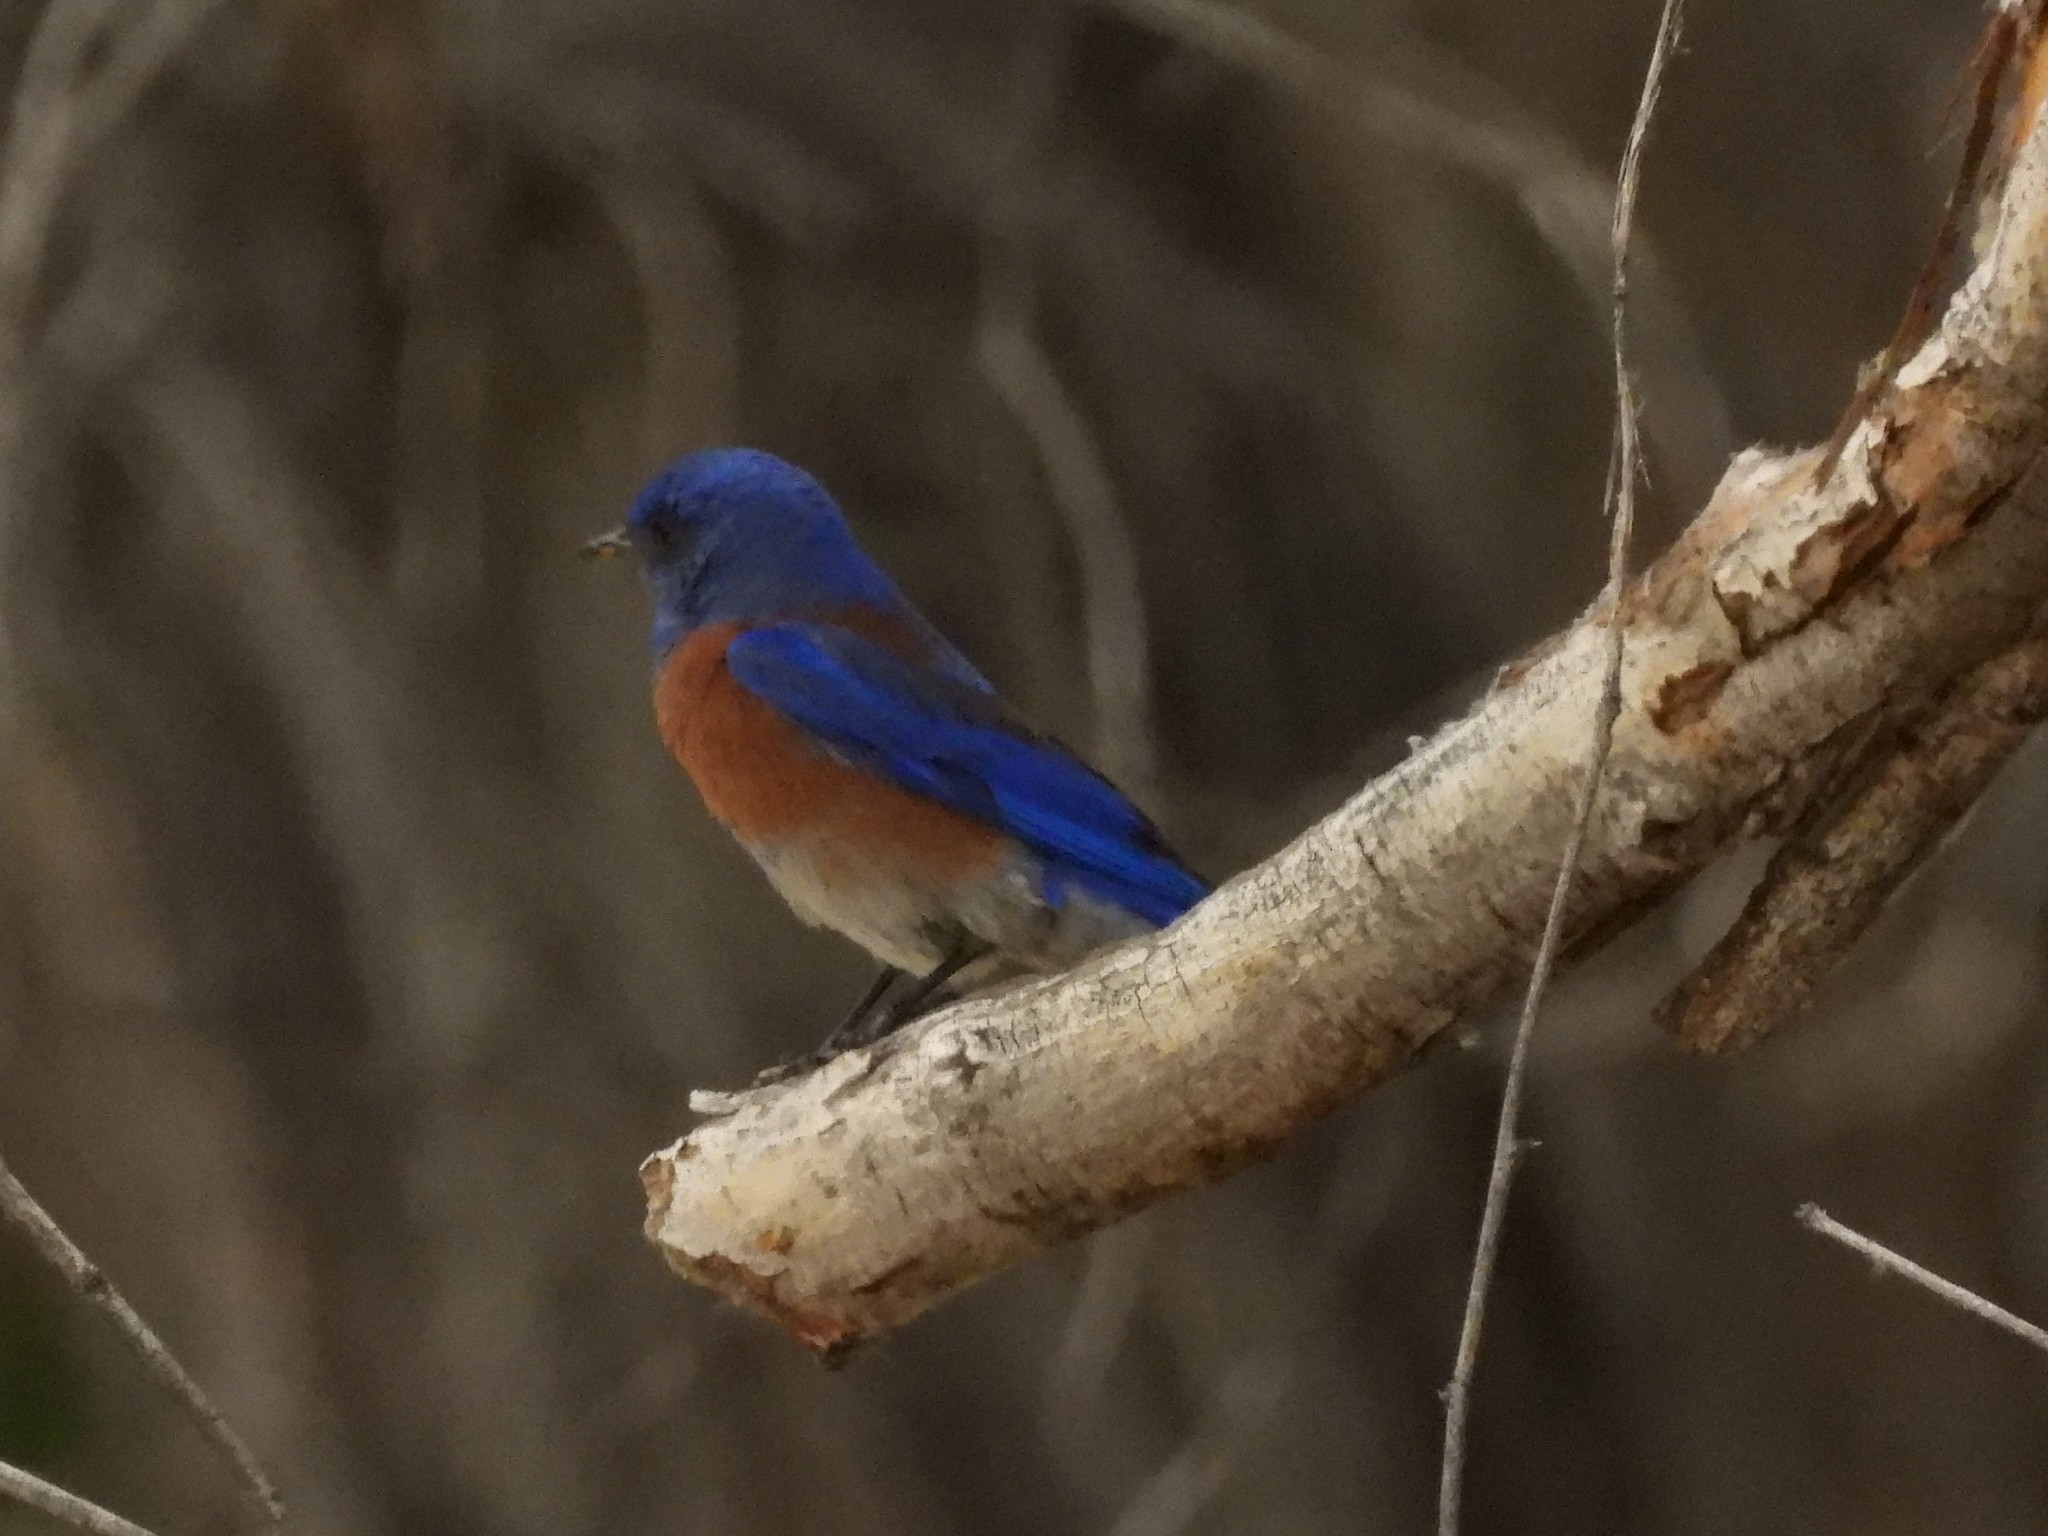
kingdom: Animalia
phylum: Chordata
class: Aves
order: Passeriformes
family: Turdidae
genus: Sialia
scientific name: Sialia mexicana
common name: Western bluebird
